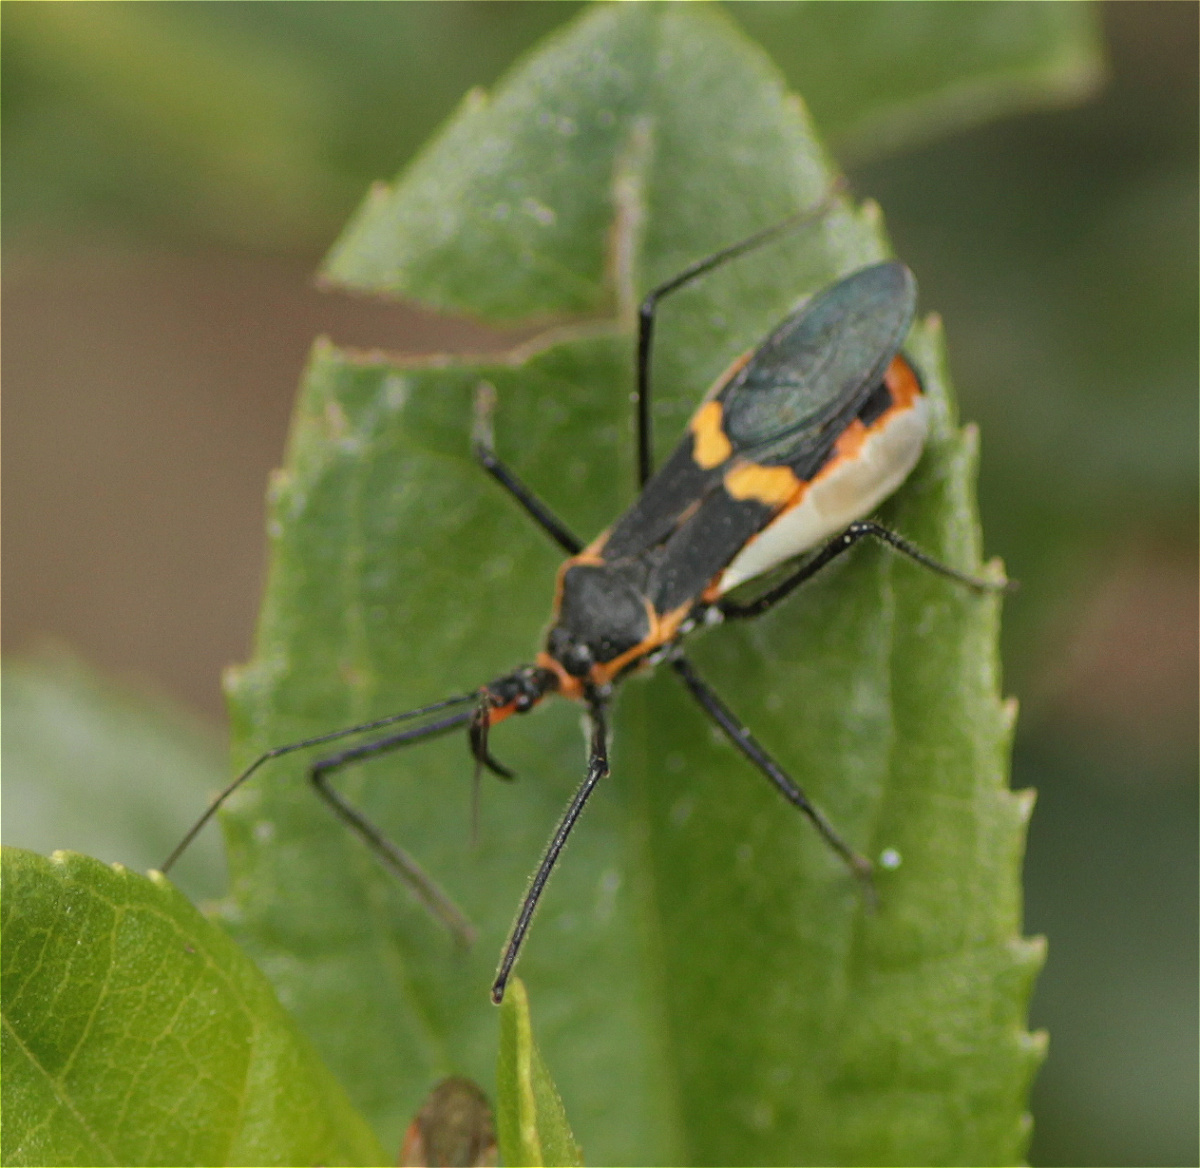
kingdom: Animalia
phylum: Arthropoda
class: Insecta
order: Hemiptera
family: Reduviidae
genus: Zelus
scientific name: Zelus longipes
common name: Milkweed assassin bug
